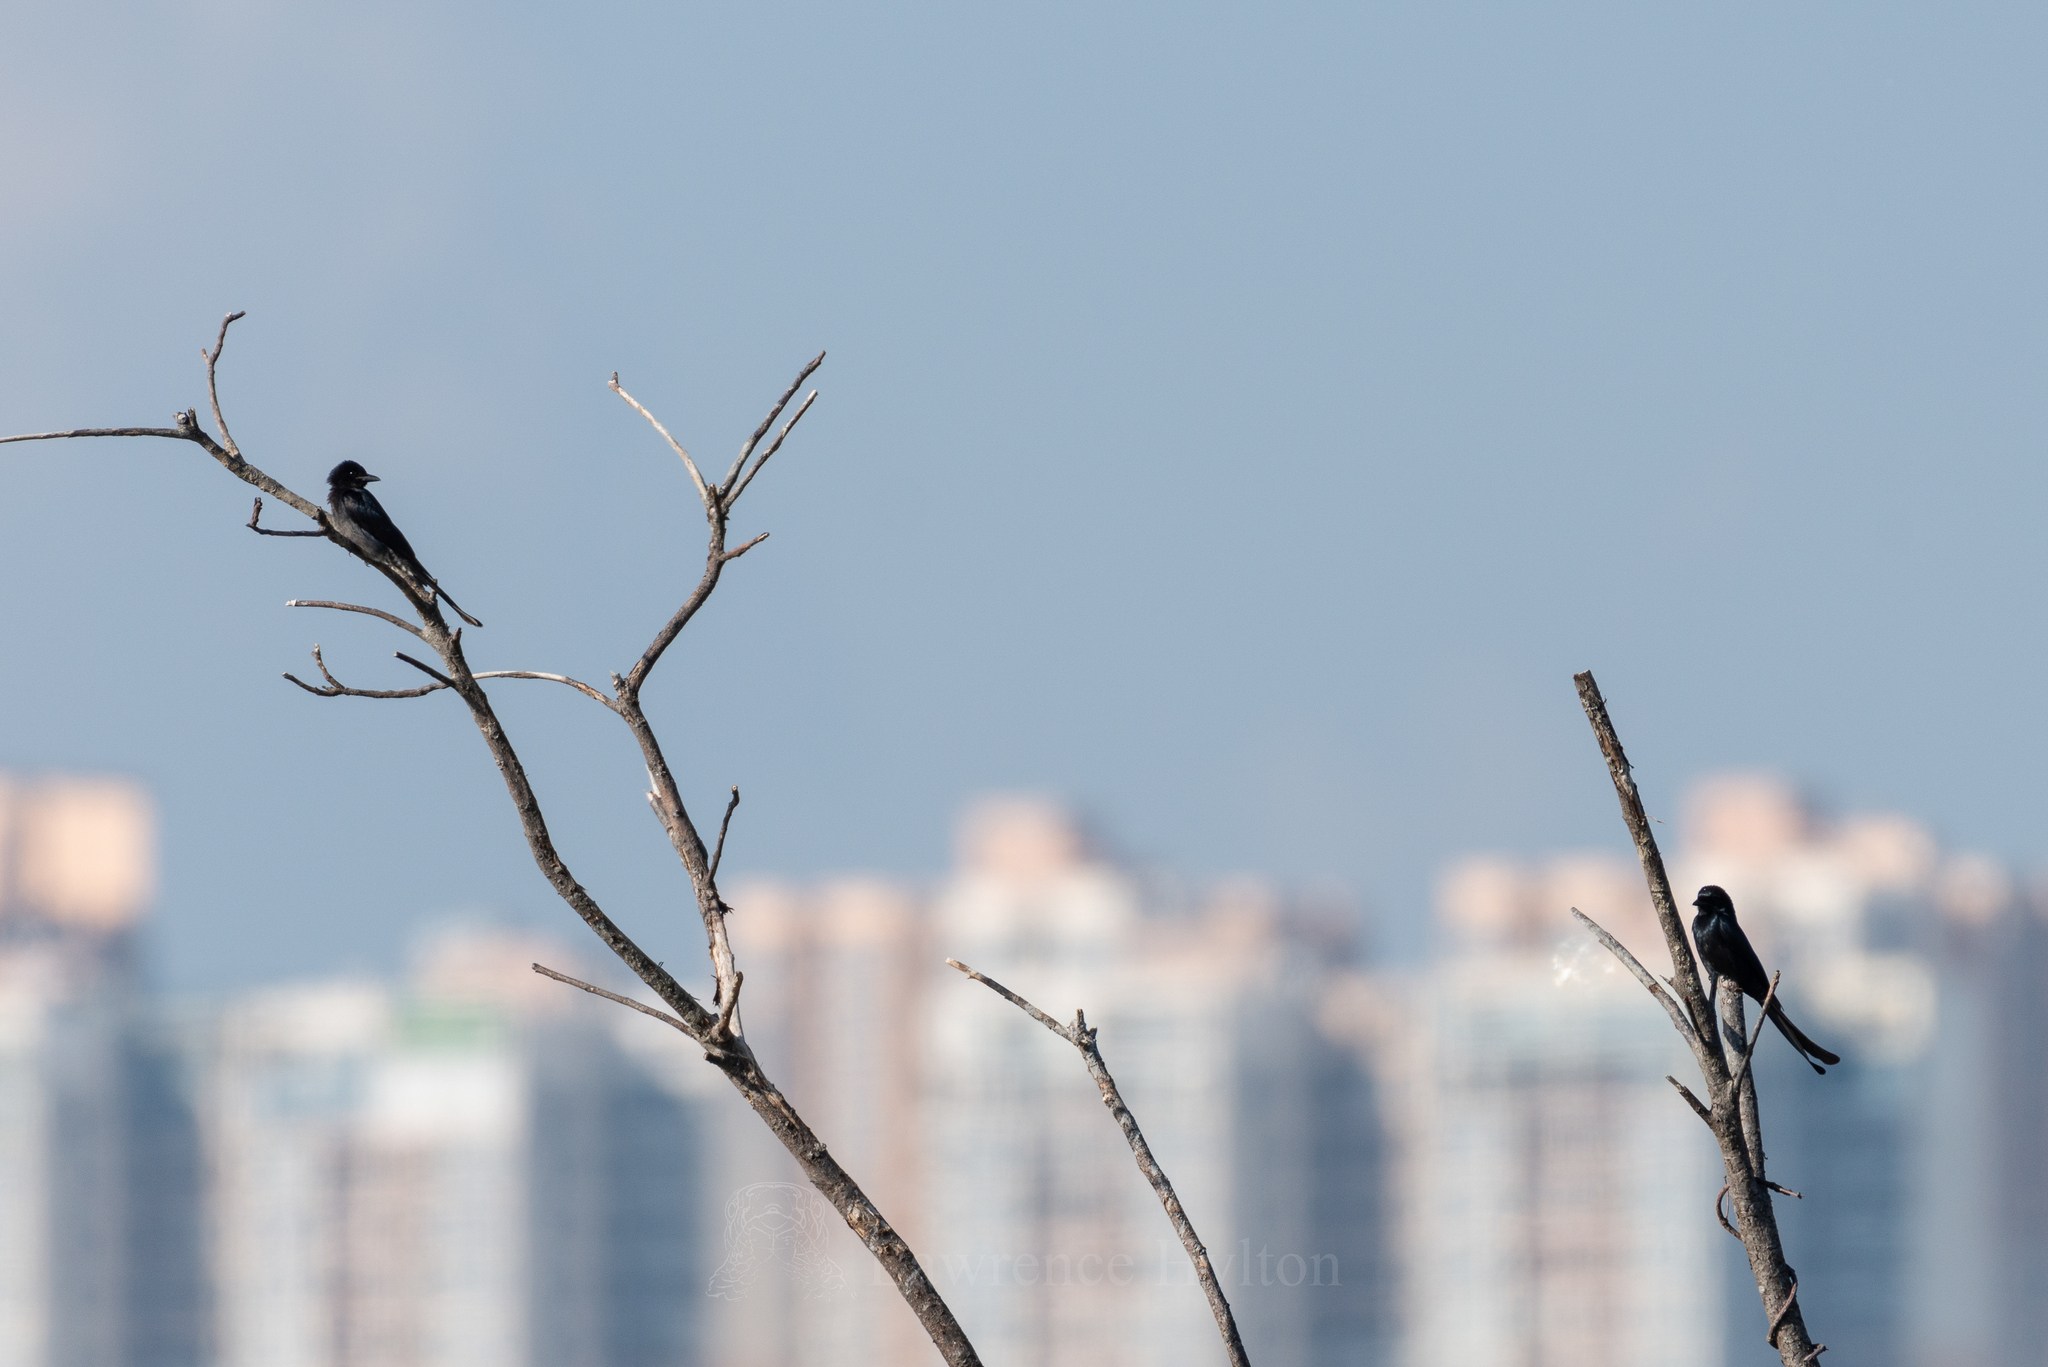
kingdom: Animalia
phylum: Chordata
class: Aves
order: Passeriformes
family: Dicruridae
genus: Dicrurus
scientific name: Dicrurus macrocercus
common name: Black drongo
